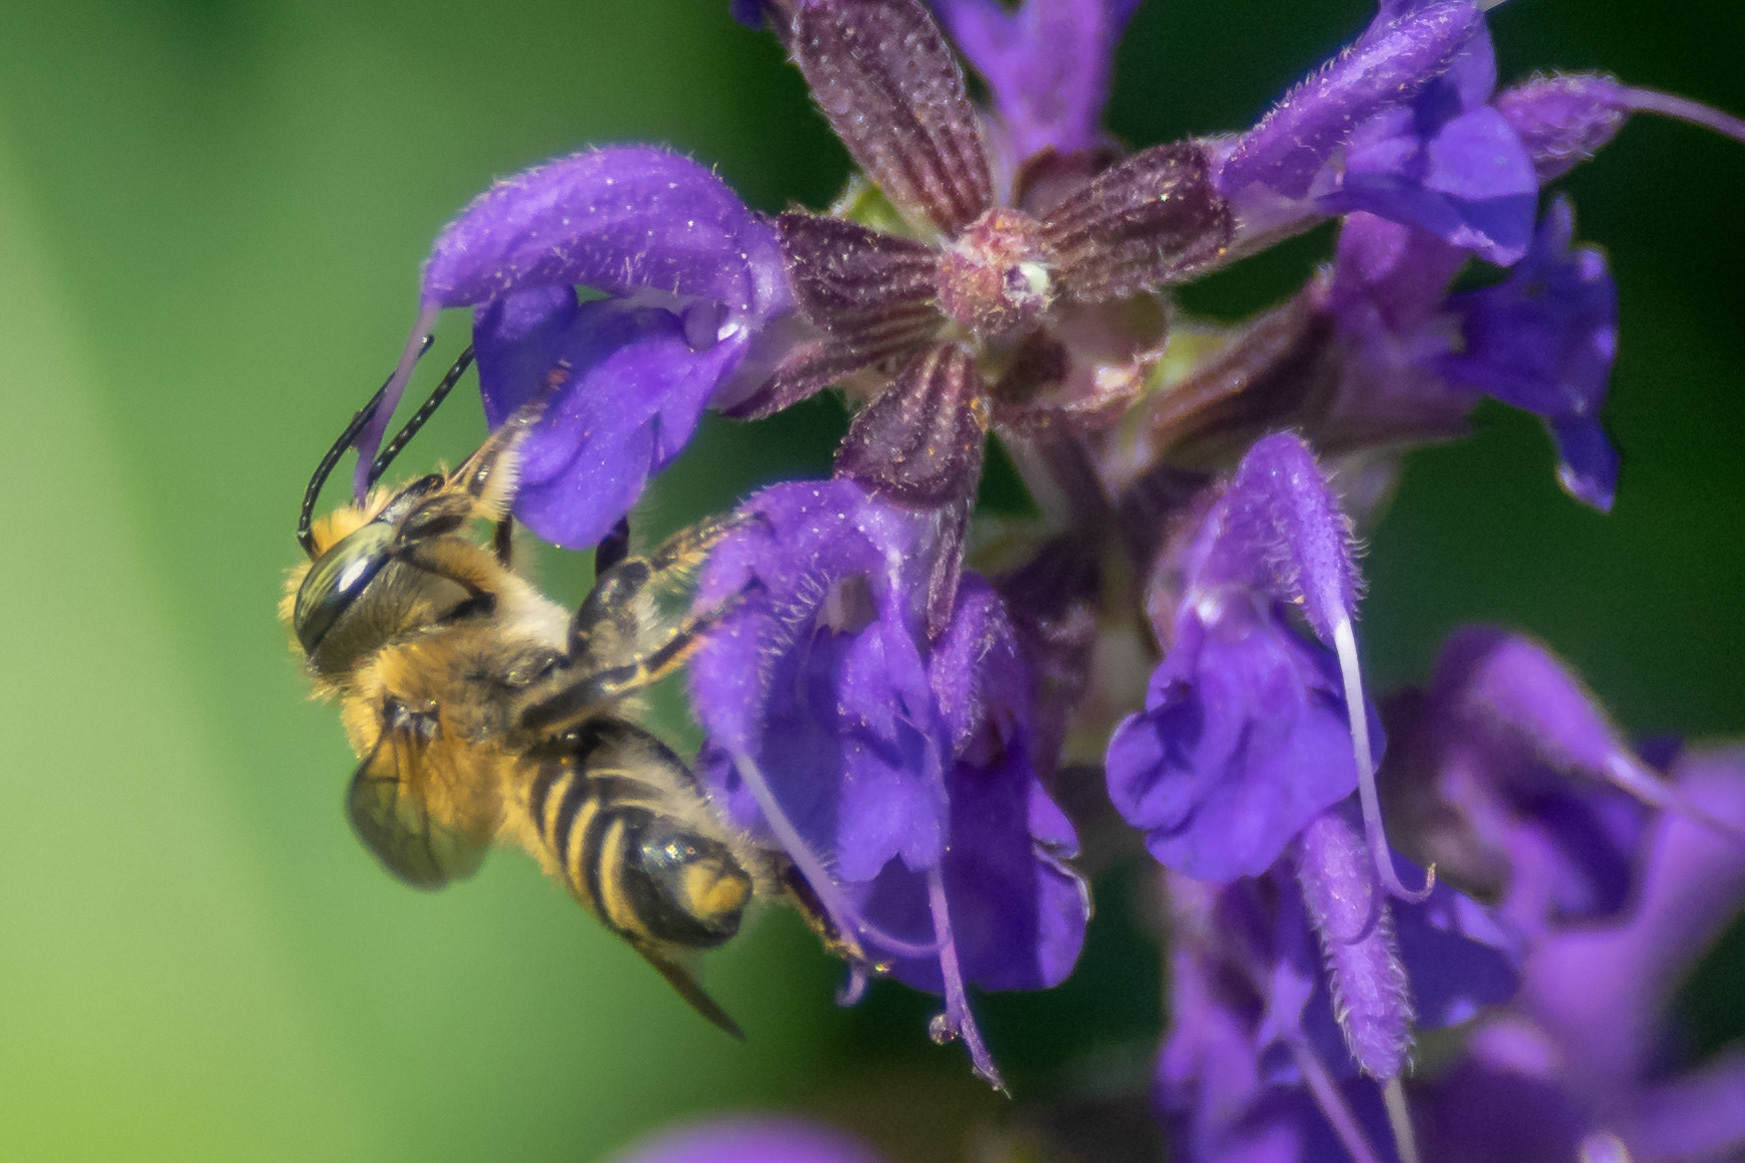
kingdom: Animalia
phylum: Arthropoda
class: Insecta
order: Hymenoptera
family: Megachilidae
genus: Megachile
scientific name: Megachile mendica
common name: Flat-tailed leafcutter
